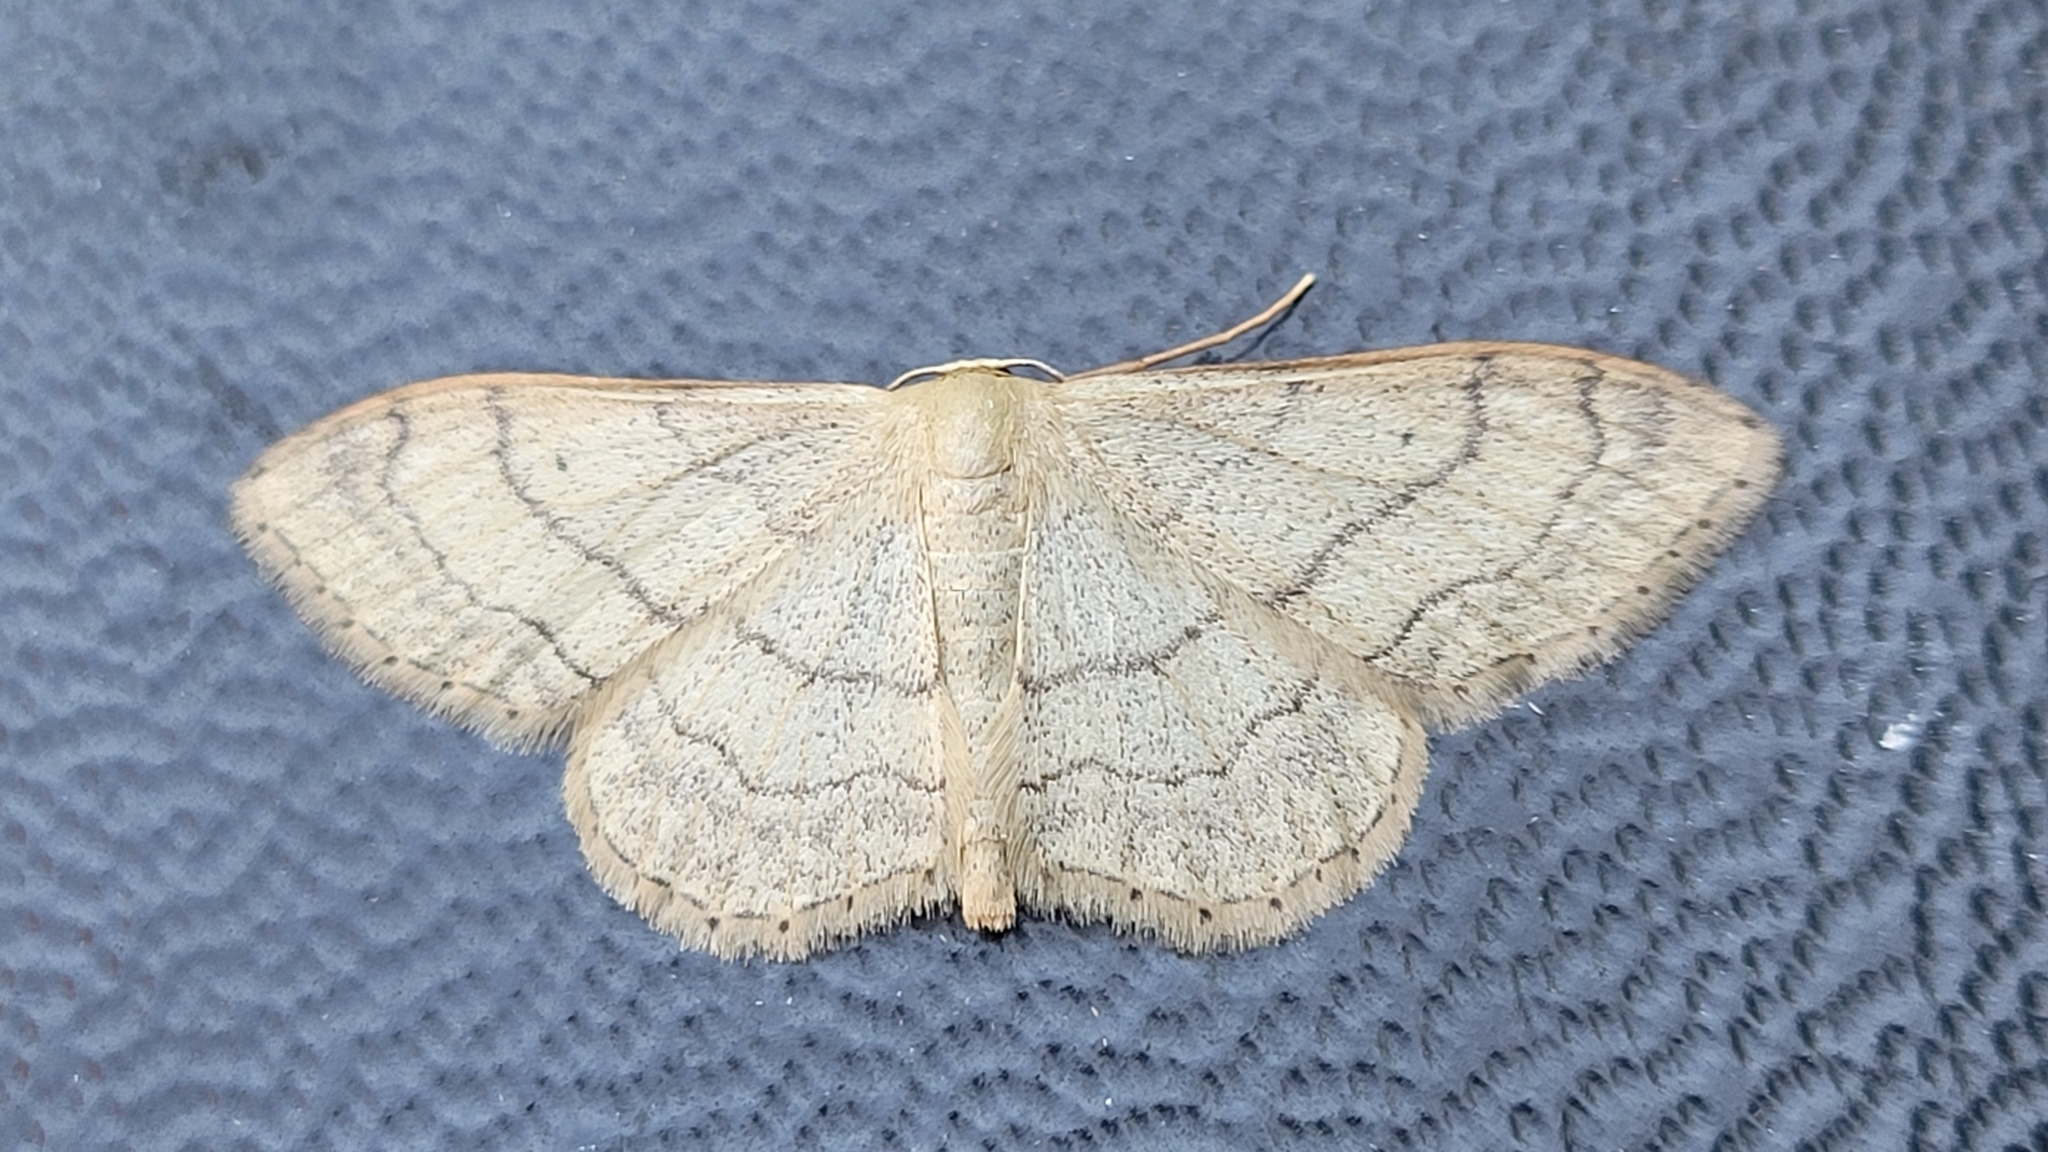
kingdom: Animalia
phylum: Arthropoda
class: Insecta
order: Lepidoptera
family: Geometridae
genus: Idaea
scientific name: Idaea aversata
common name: Riband wave
